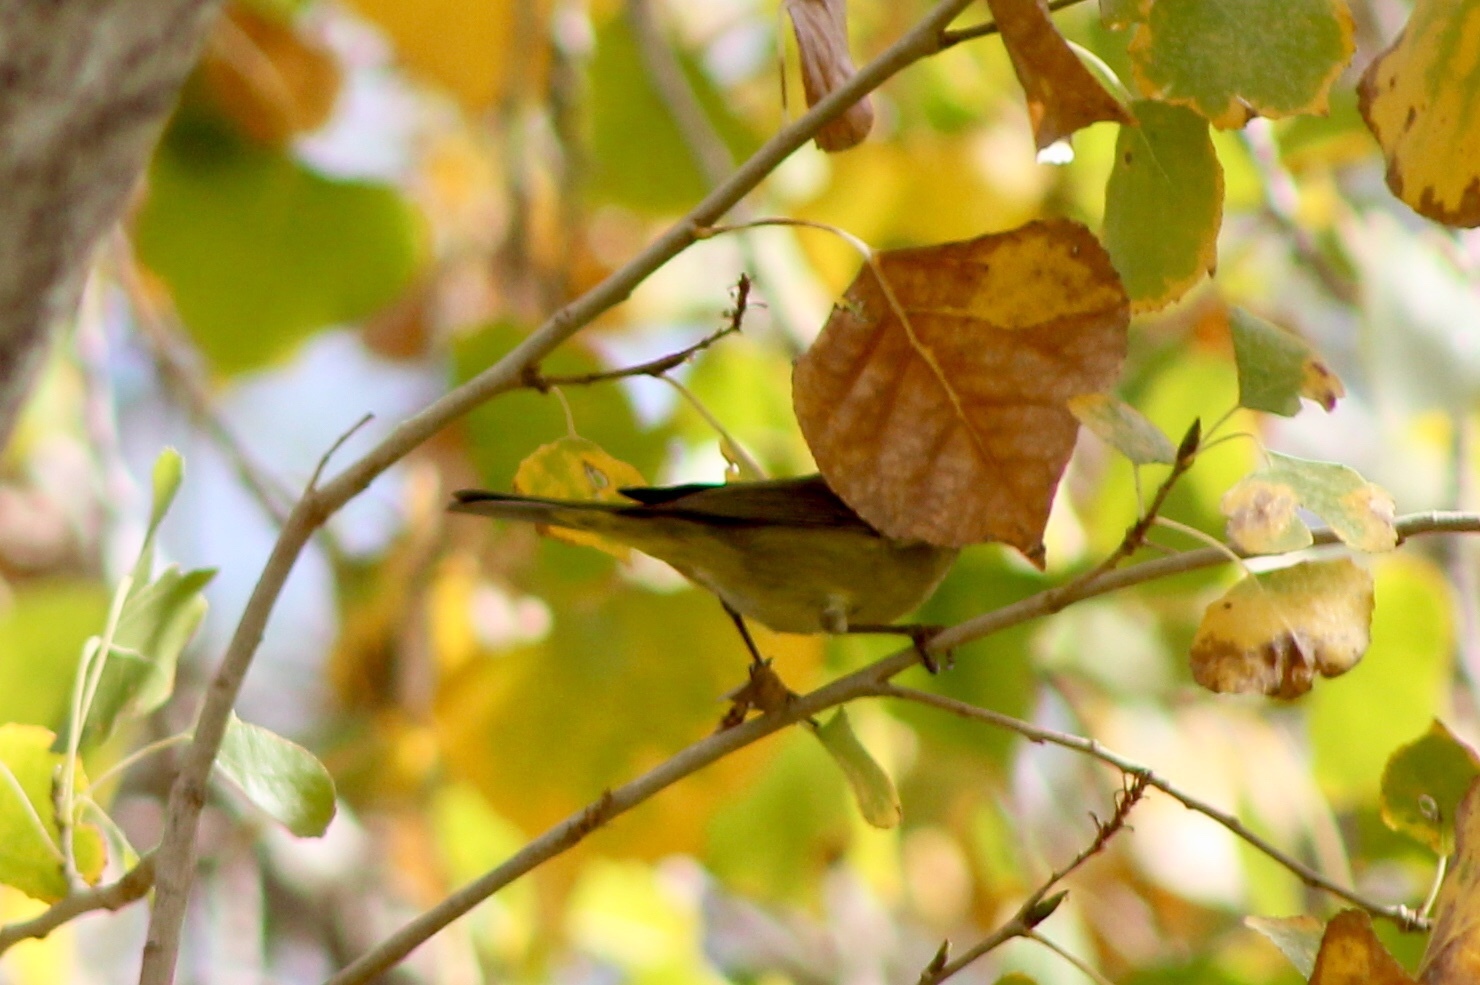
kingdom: Animalia
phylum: Chordata
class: Aves
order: Passeriformes
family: Parulidae
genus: Leiothlypis
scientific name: Leiothlypis celata
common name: Orange-crowned warbler
